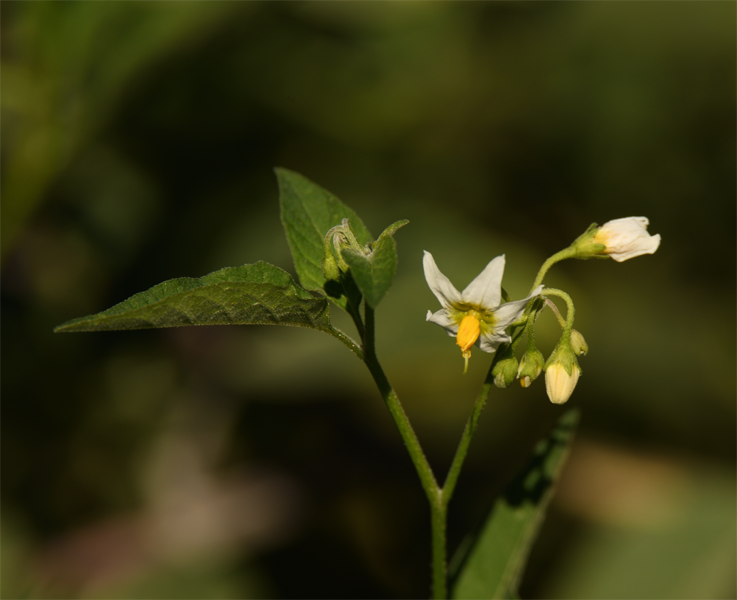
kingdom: Plantae
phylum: Tracheophyta
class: Magnoliopsida
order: Solanales
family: Solanaceae
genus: Solanum
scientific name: Solanum douglasii
